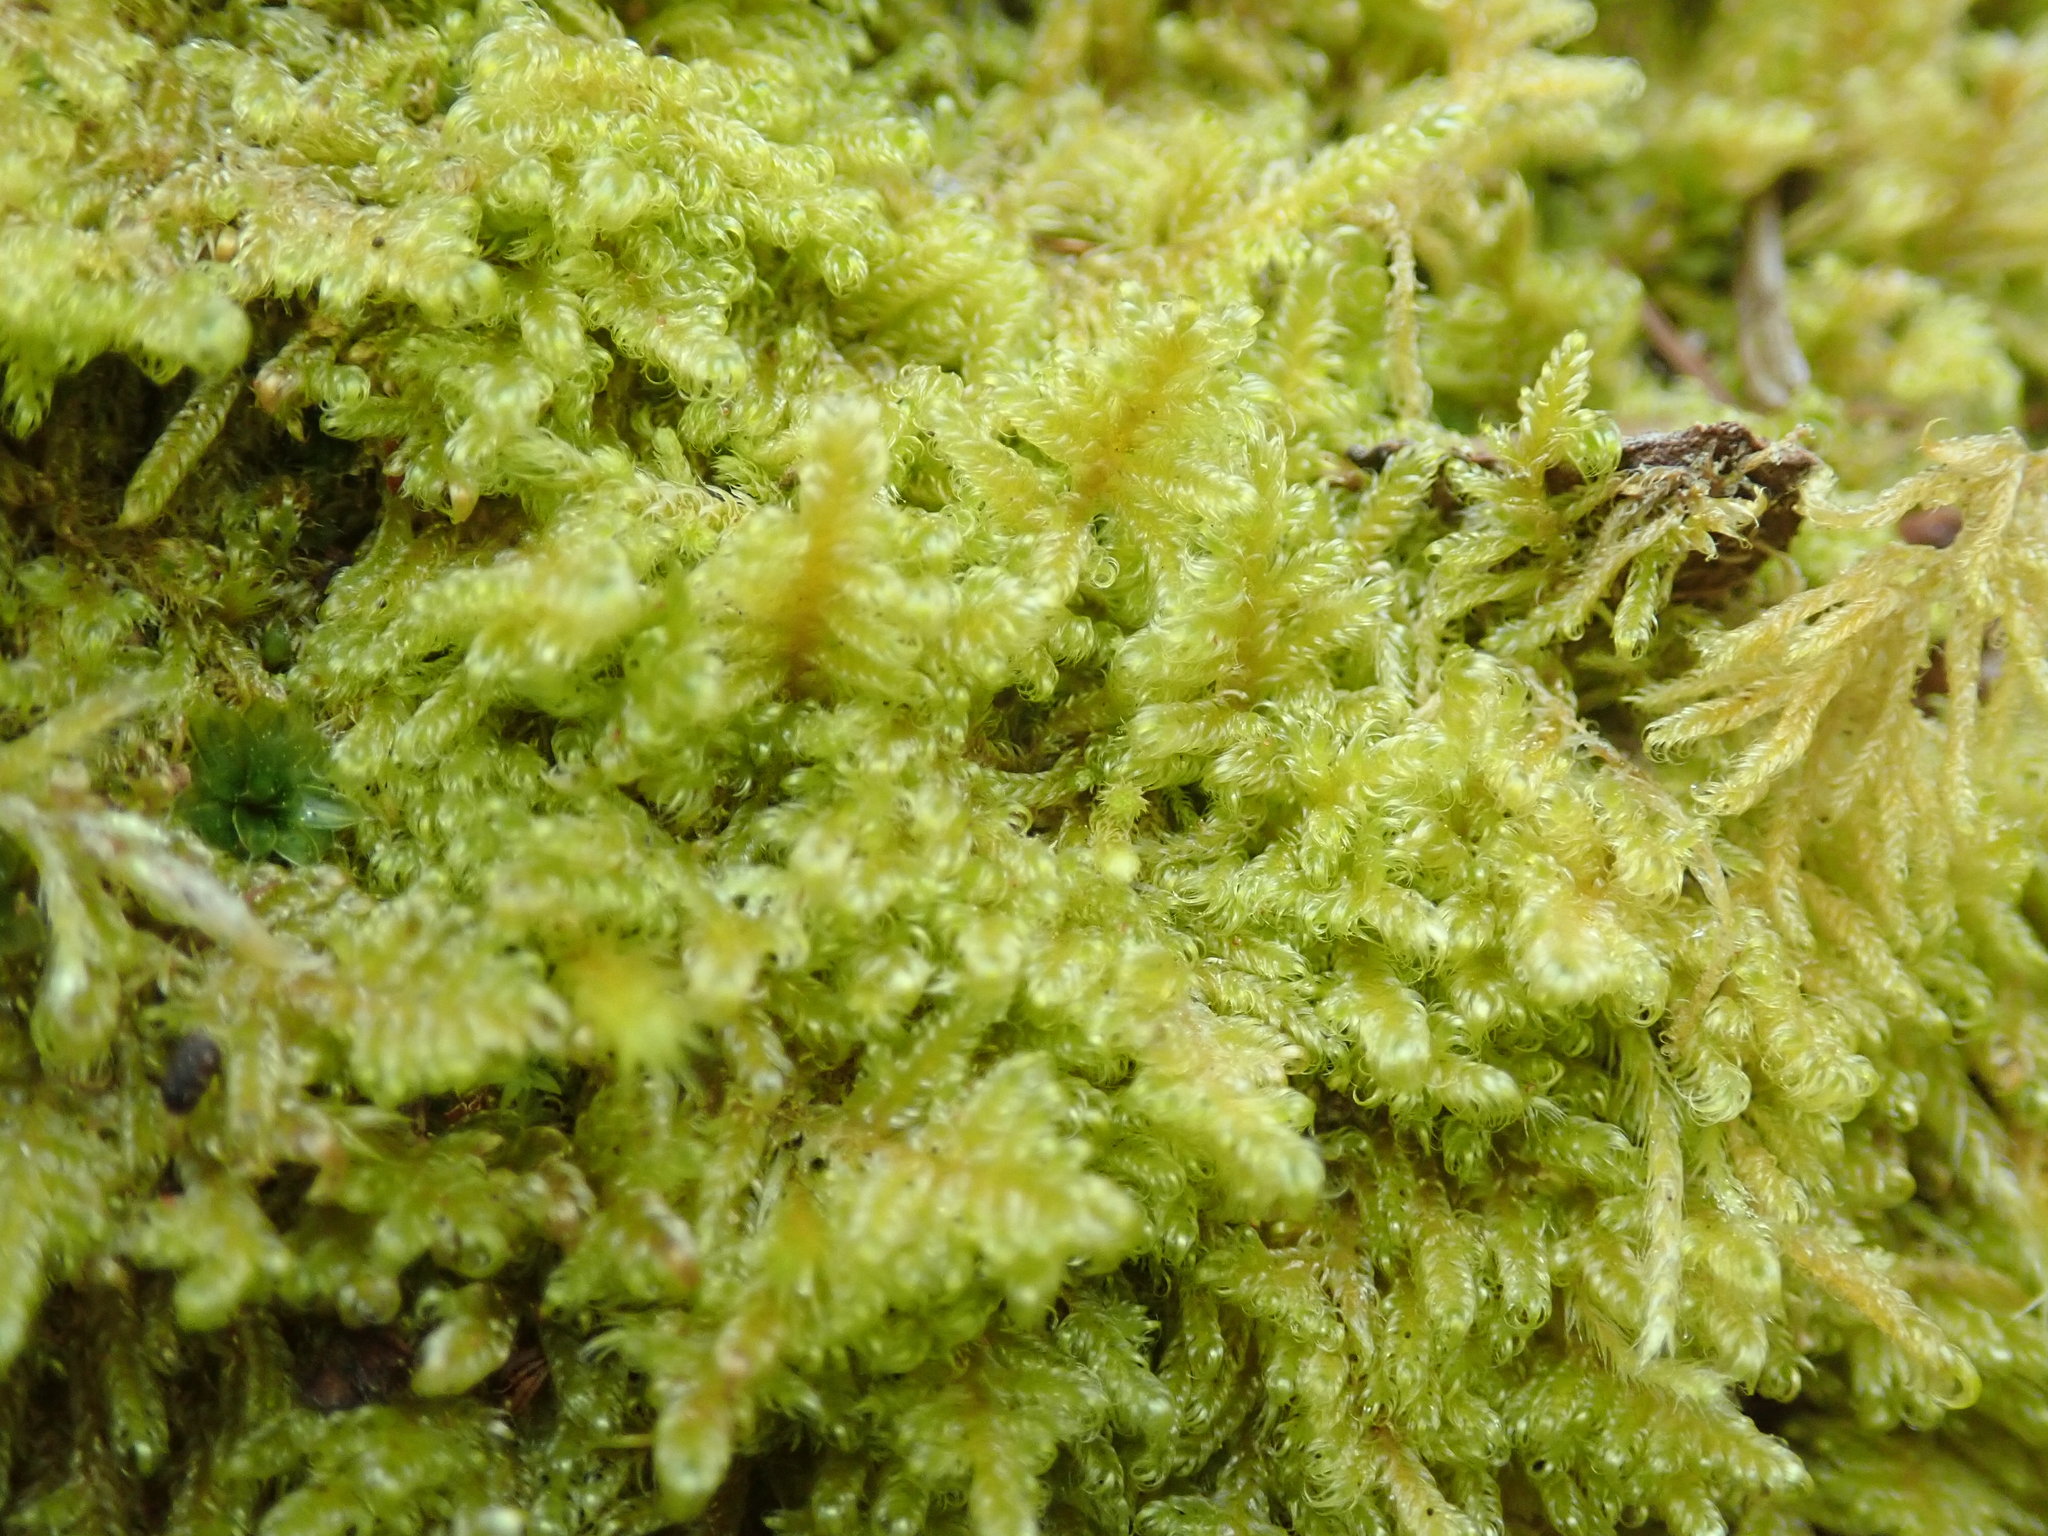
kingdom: Plantae
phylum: Bryophyta
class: Bryopsida
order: Hypnales
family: Stereodontaceae
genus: Stereodon
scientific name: Stereodon subimponens
